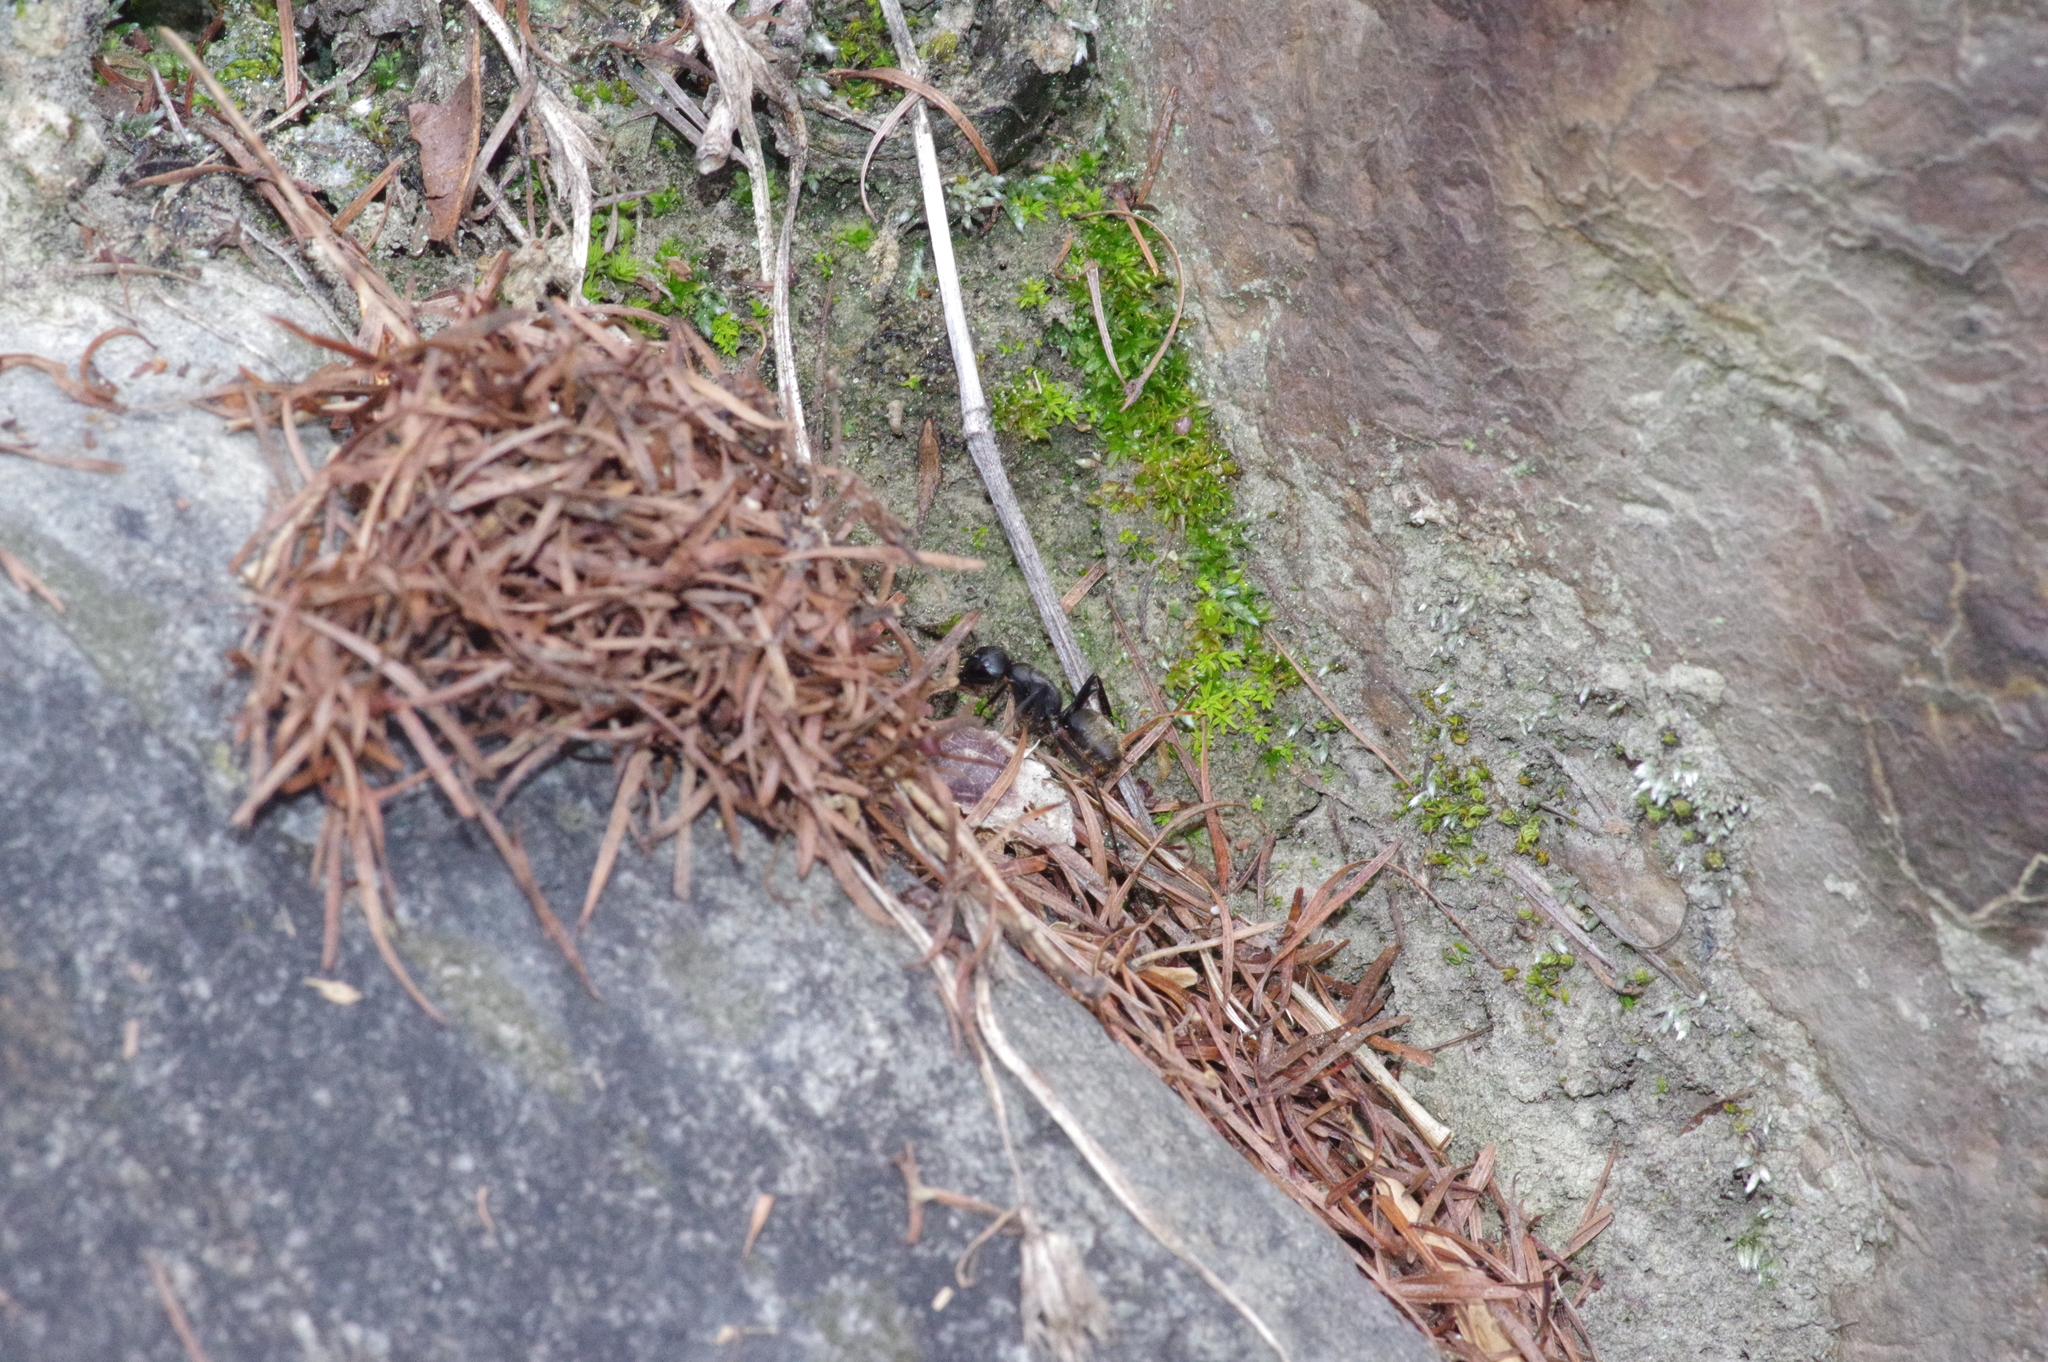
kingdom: Animalia
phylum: Arthropoda
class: Insecta
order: Hymenoptera
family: Formicidae
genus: Camponotus
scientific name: Camponotus japonicus
